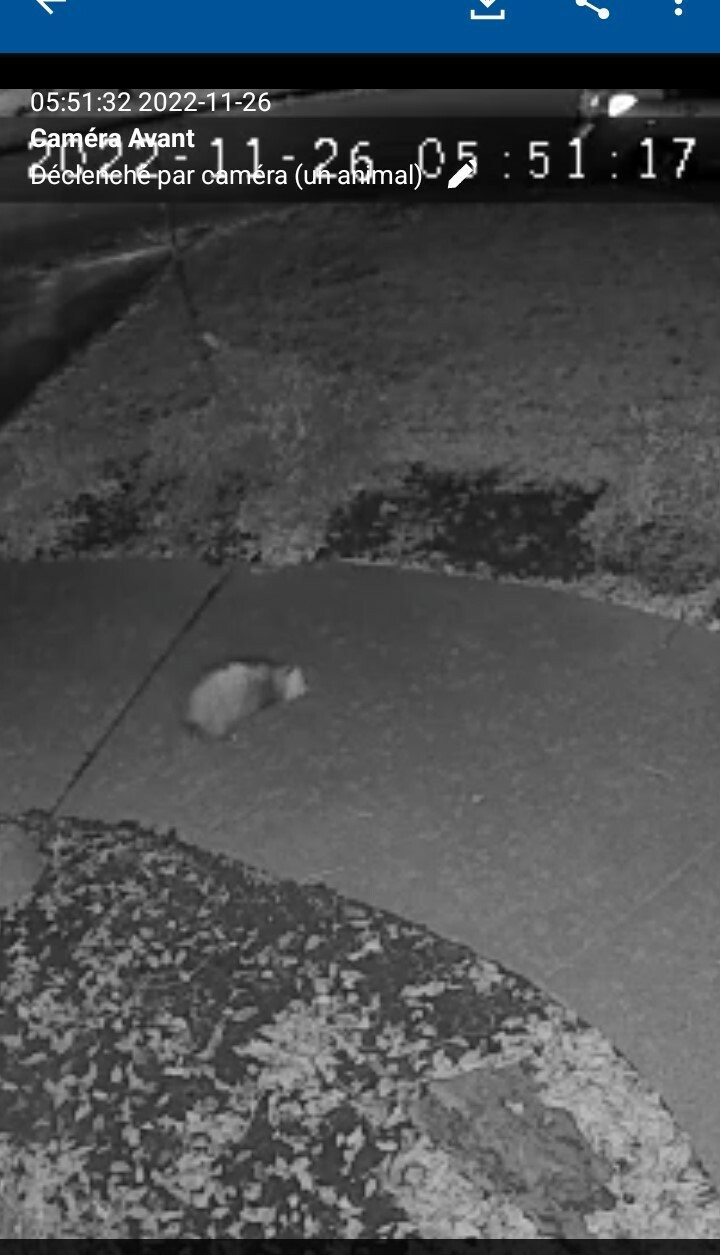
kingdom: Animalia
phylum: Chordata
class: Mammalia
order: Didelphimorphia
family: Didelphidae
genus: Didelphis
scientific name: Didelphis virginiana
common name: Virginia opossum
